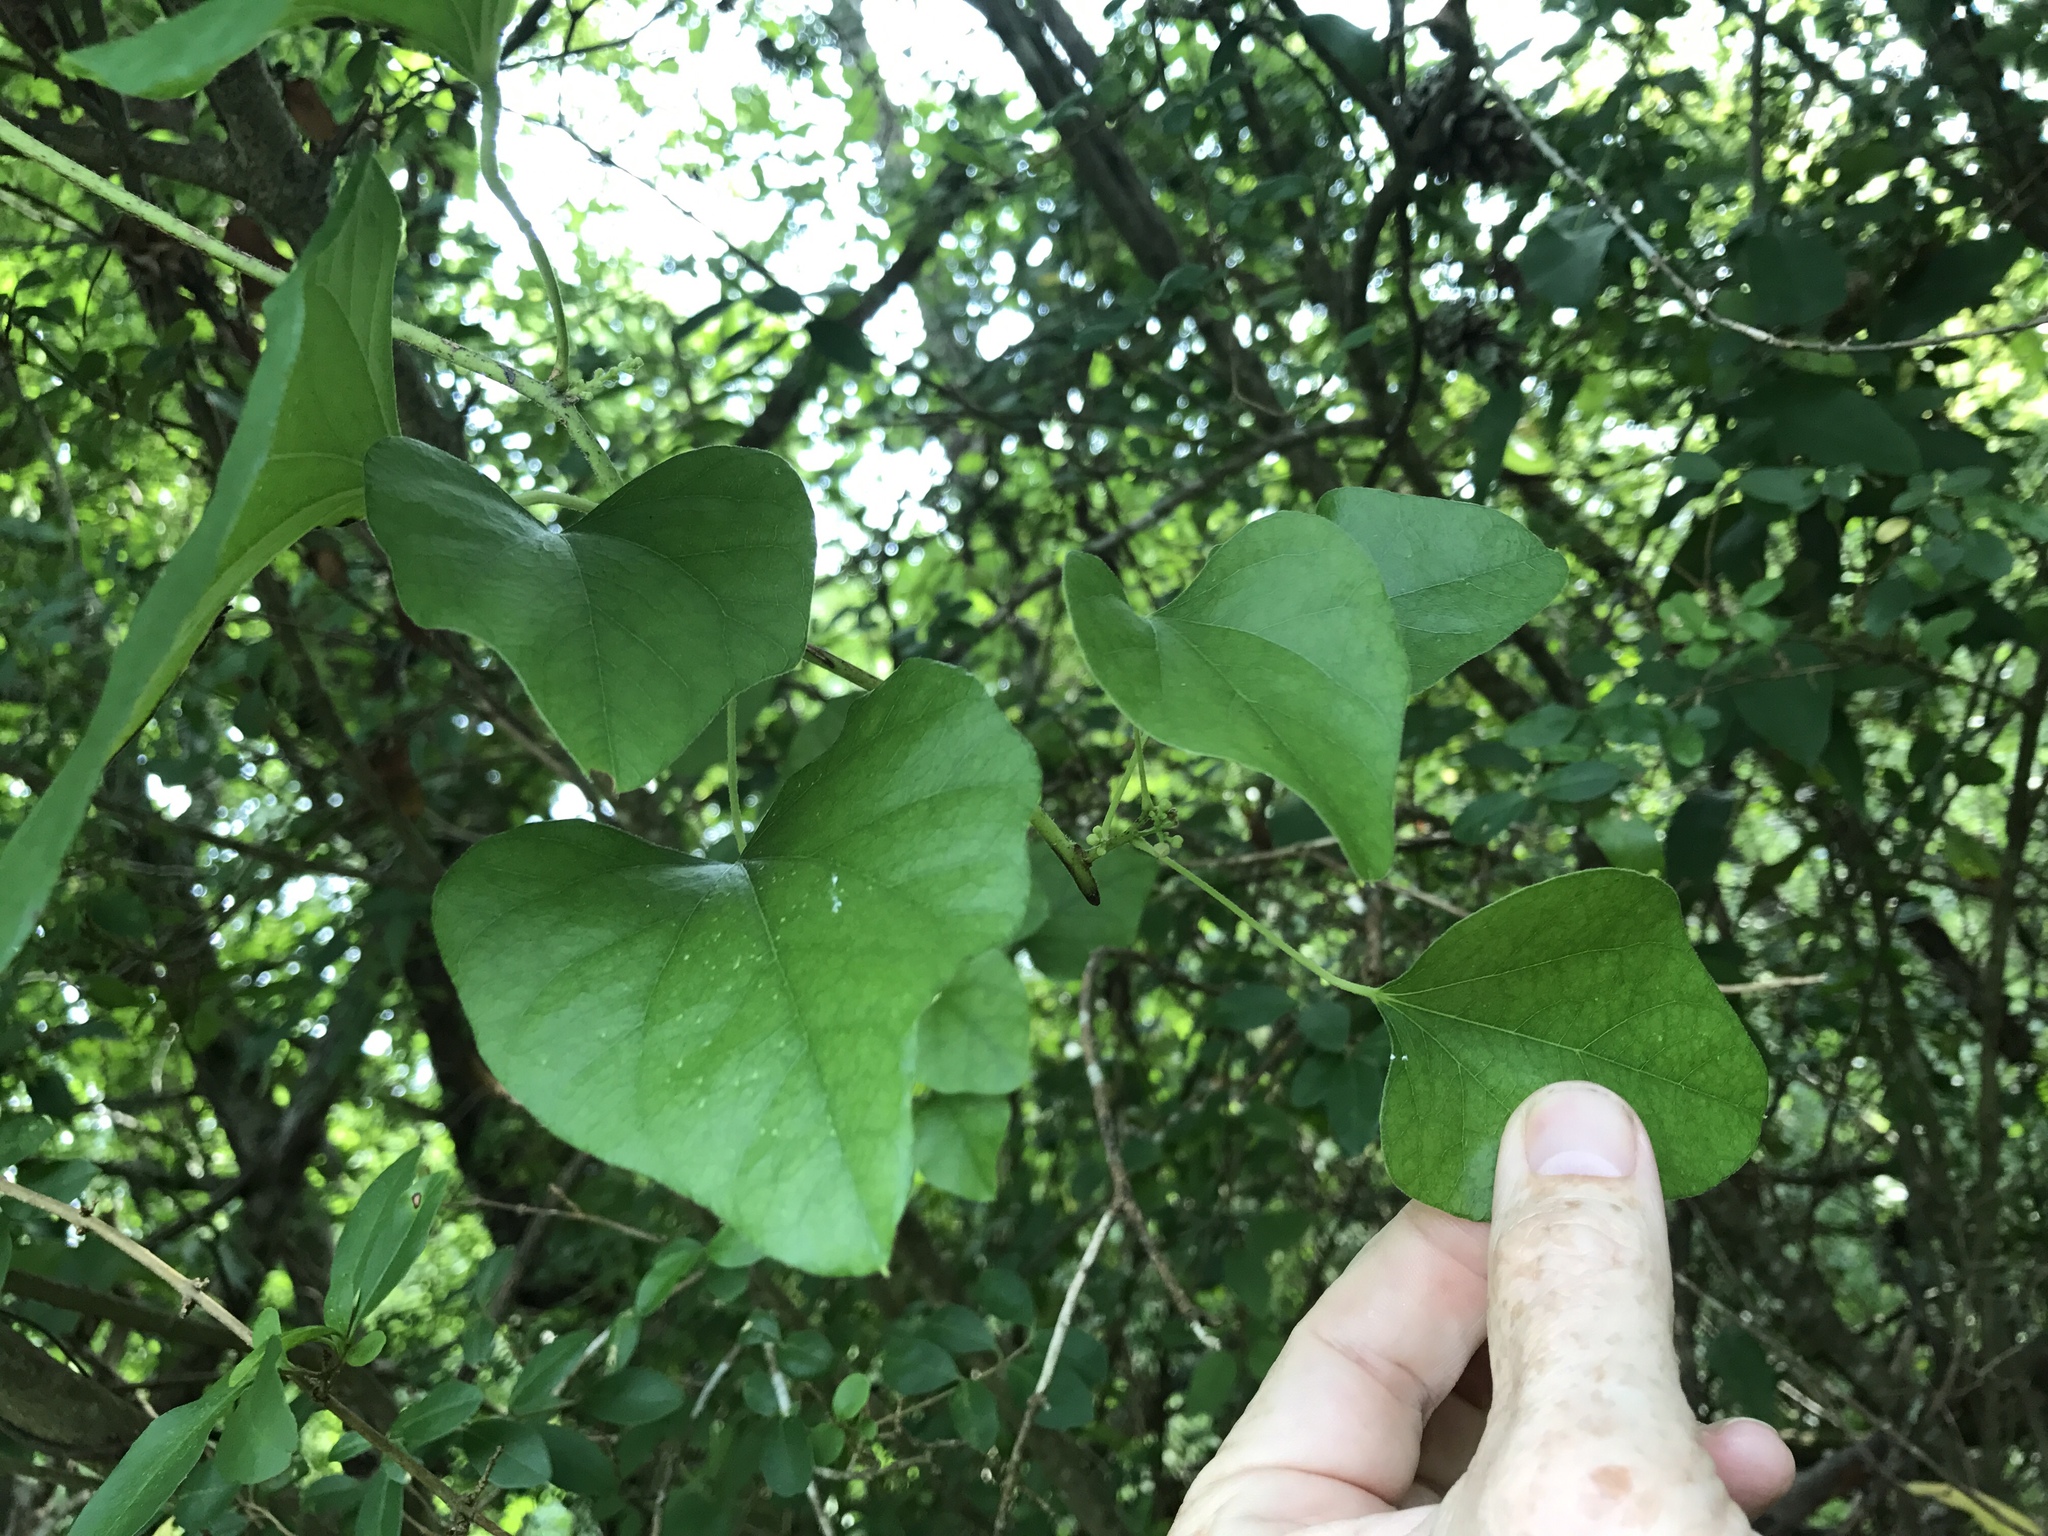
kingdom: Plantae
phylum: Tracheophyta
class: Magnoliopsida
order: Ranunculales
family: Menispermaceae
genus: Cocculus
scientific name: Cocculus carolinus
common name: Carolina moonseed
